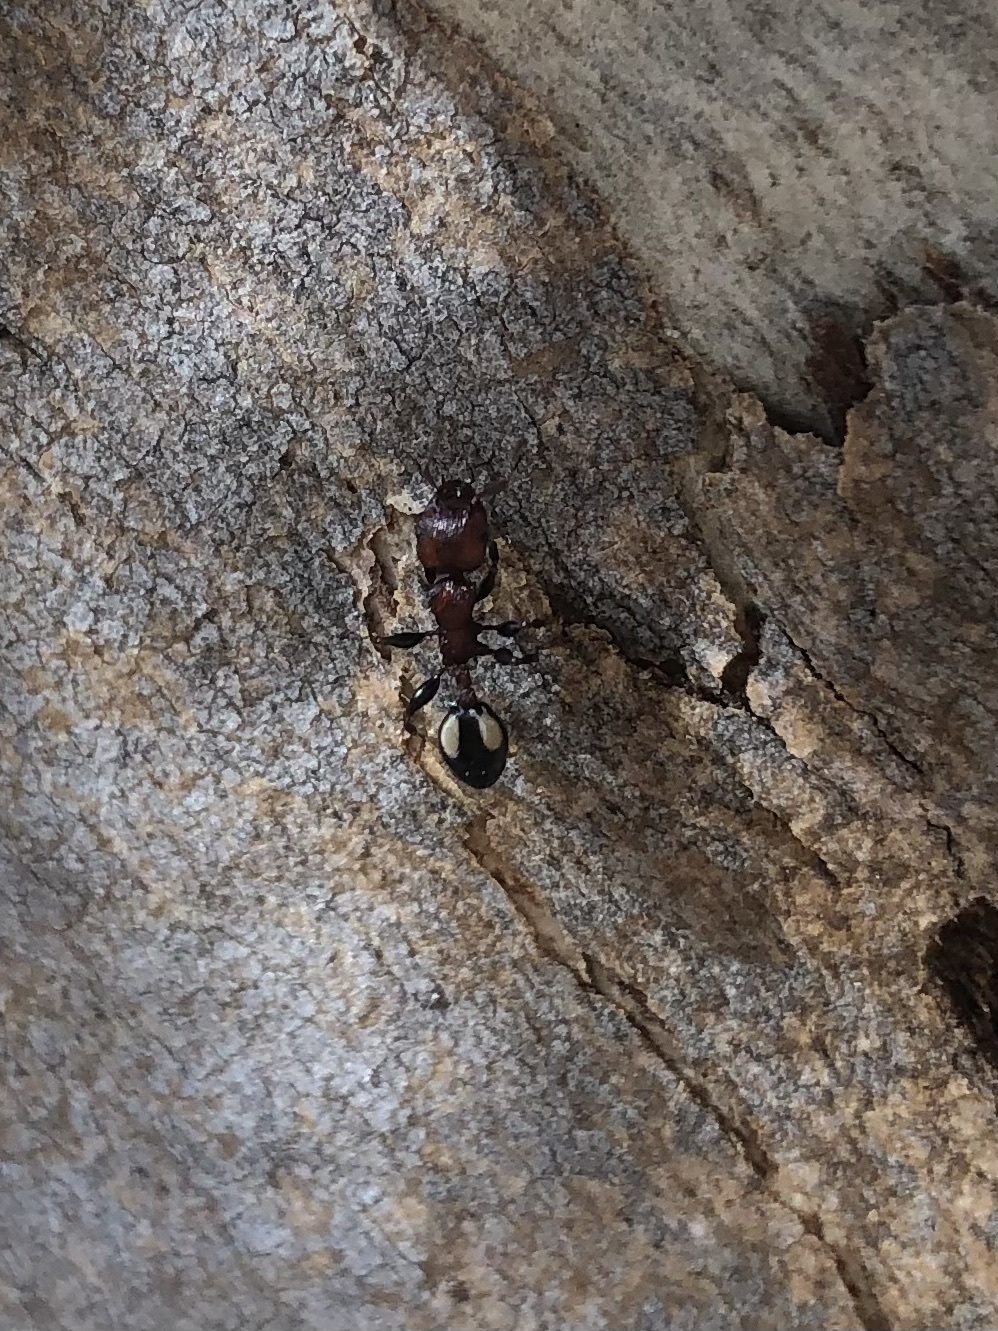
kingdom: Animalia
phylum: Arthropoda
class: Insecta
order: Hymenoptera
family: Formicidae
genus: Podomyrma
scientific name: Podomyrma adelaidae
